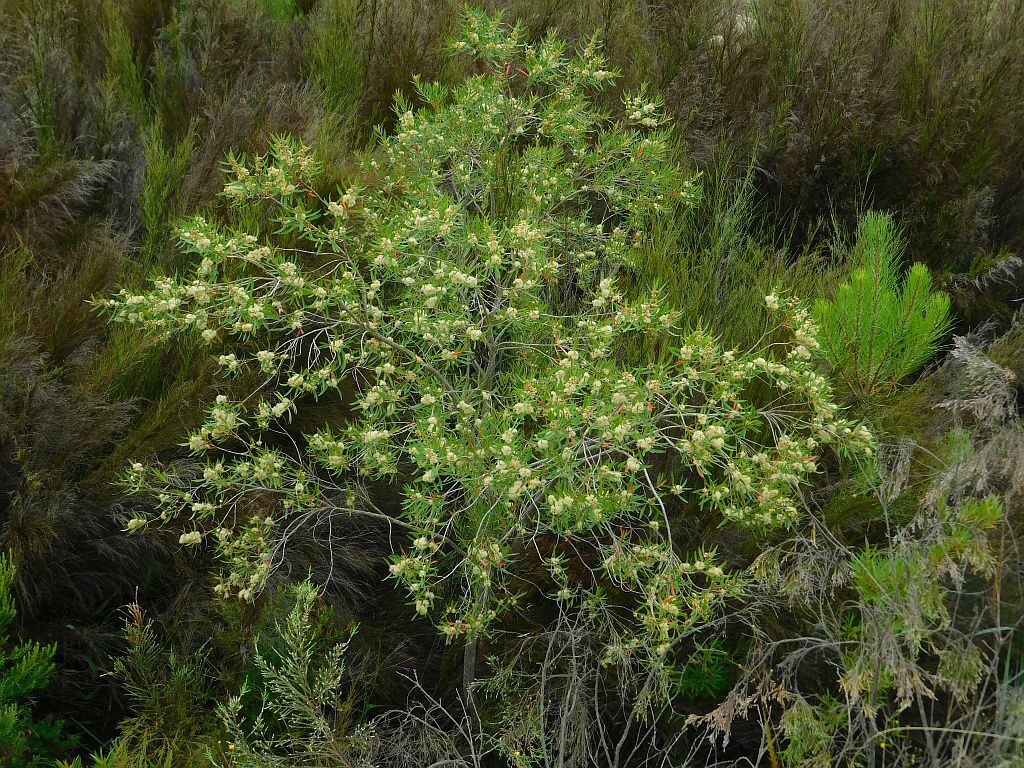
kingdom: Plantae
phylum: Tracheophyta
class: Magnoliopsida
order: Myrtales
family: Myrtaceae
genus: Callistemon
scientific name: Callistemon lanceolatus
